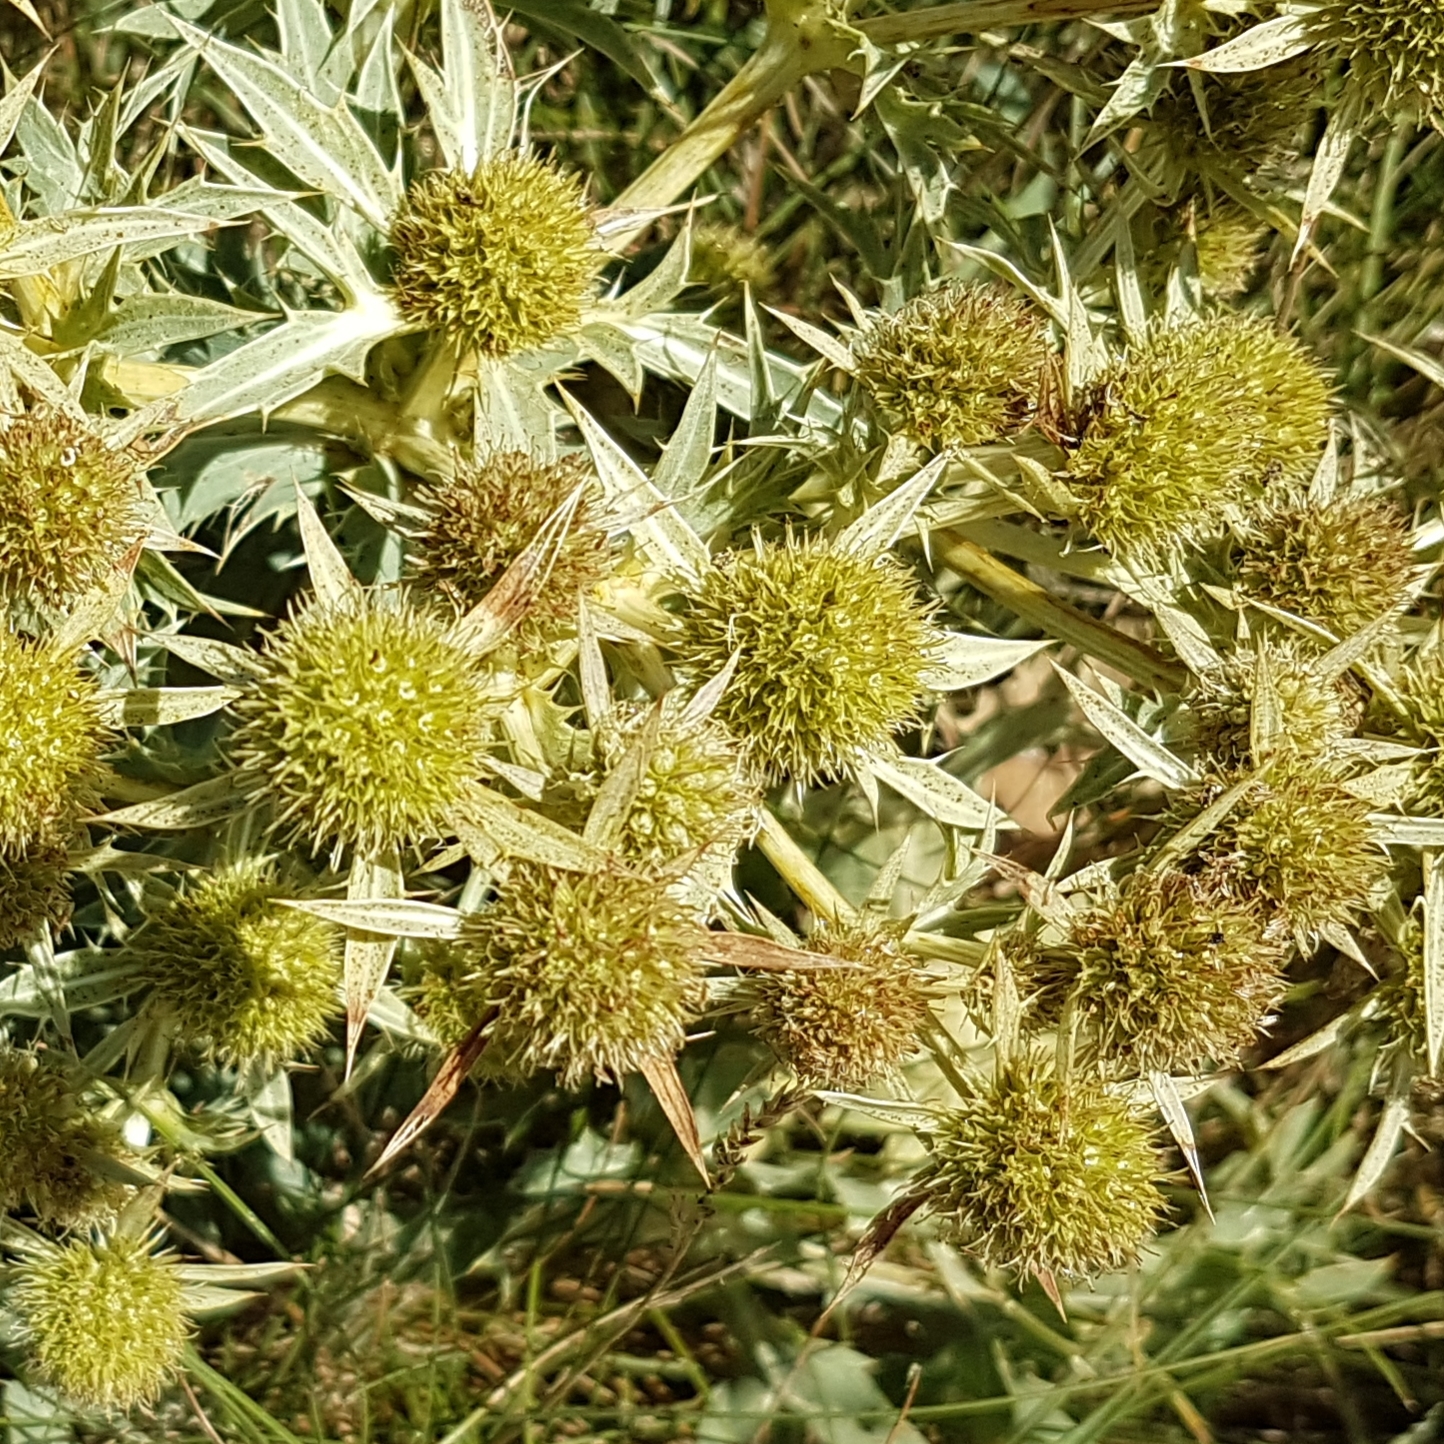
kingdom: Plantae
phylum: Tracheophyta
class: Magnoliopsida
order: Apiales
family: Apiaceae
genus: Eryngium
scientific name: Eryngium campestre
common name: Field eryngo
